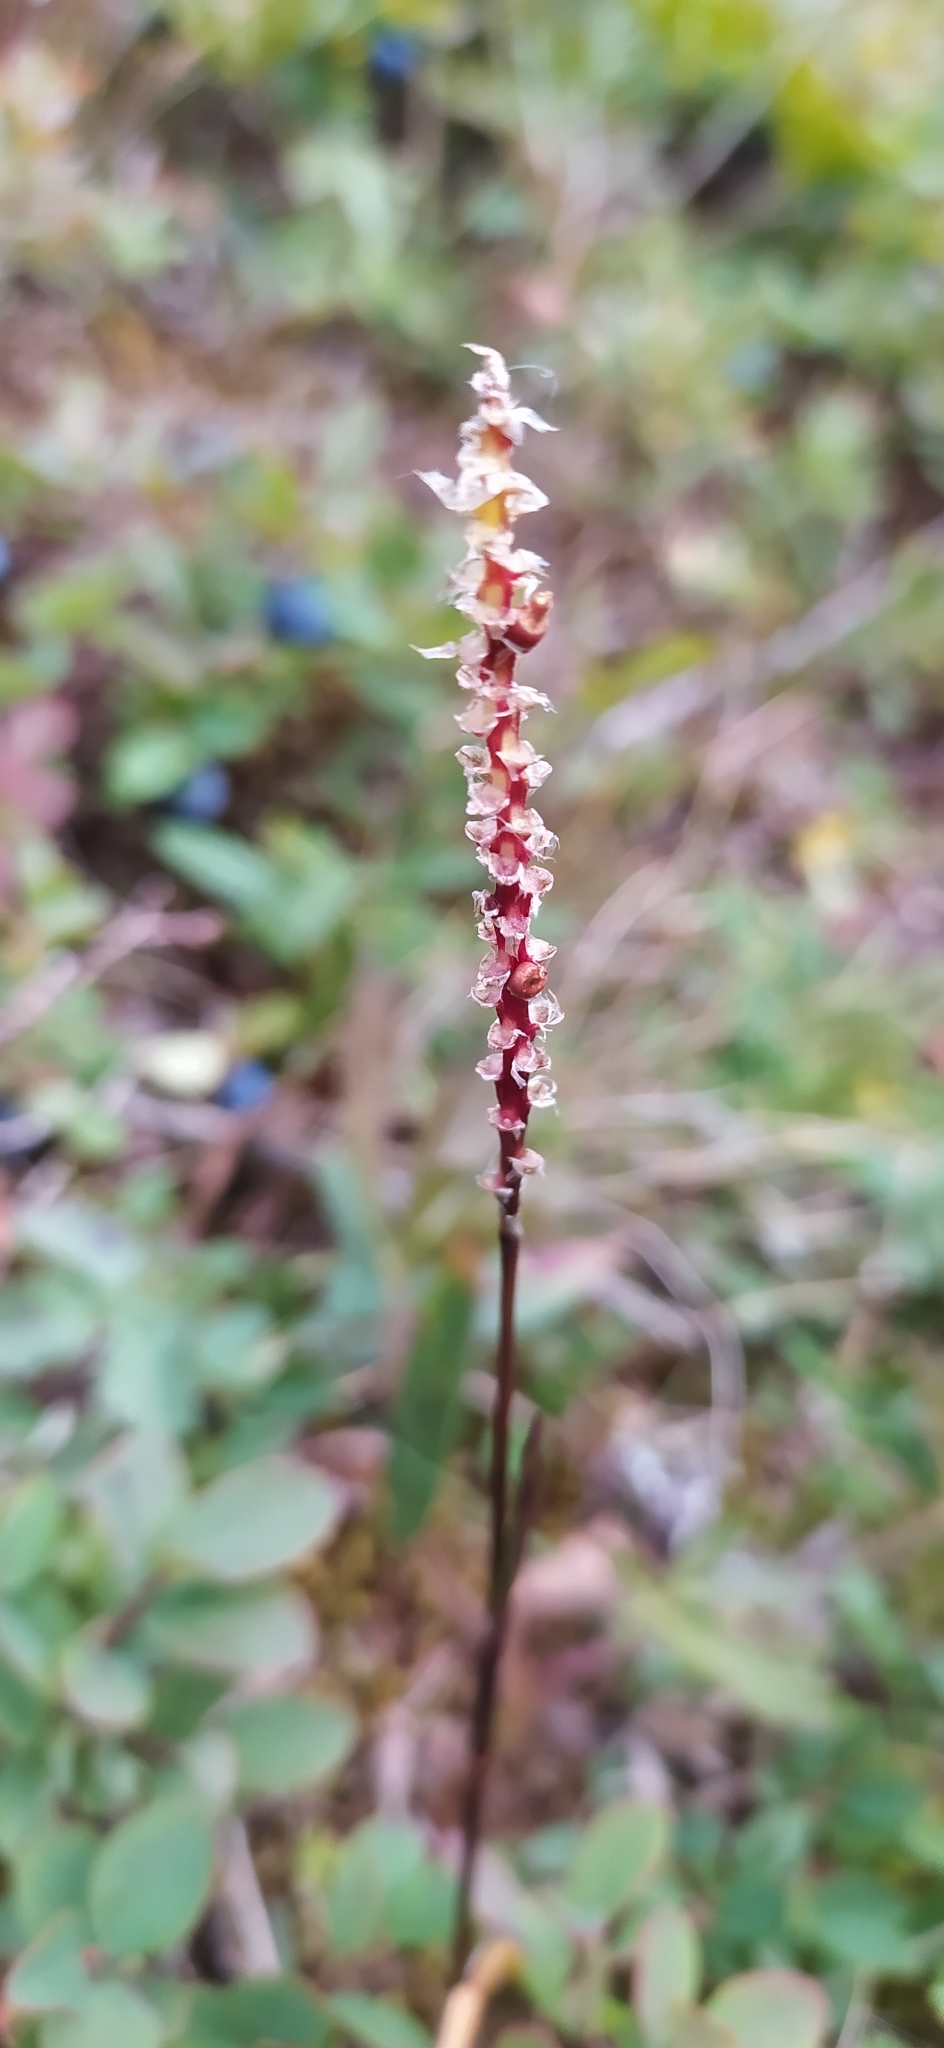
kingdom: Plantae
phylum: Tracheophyta
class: Magnoliopsida
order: Caryophyllales
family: Polygonaceae
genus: Bistorta
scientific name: Bistorta vivipara
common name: Alpine bistort
